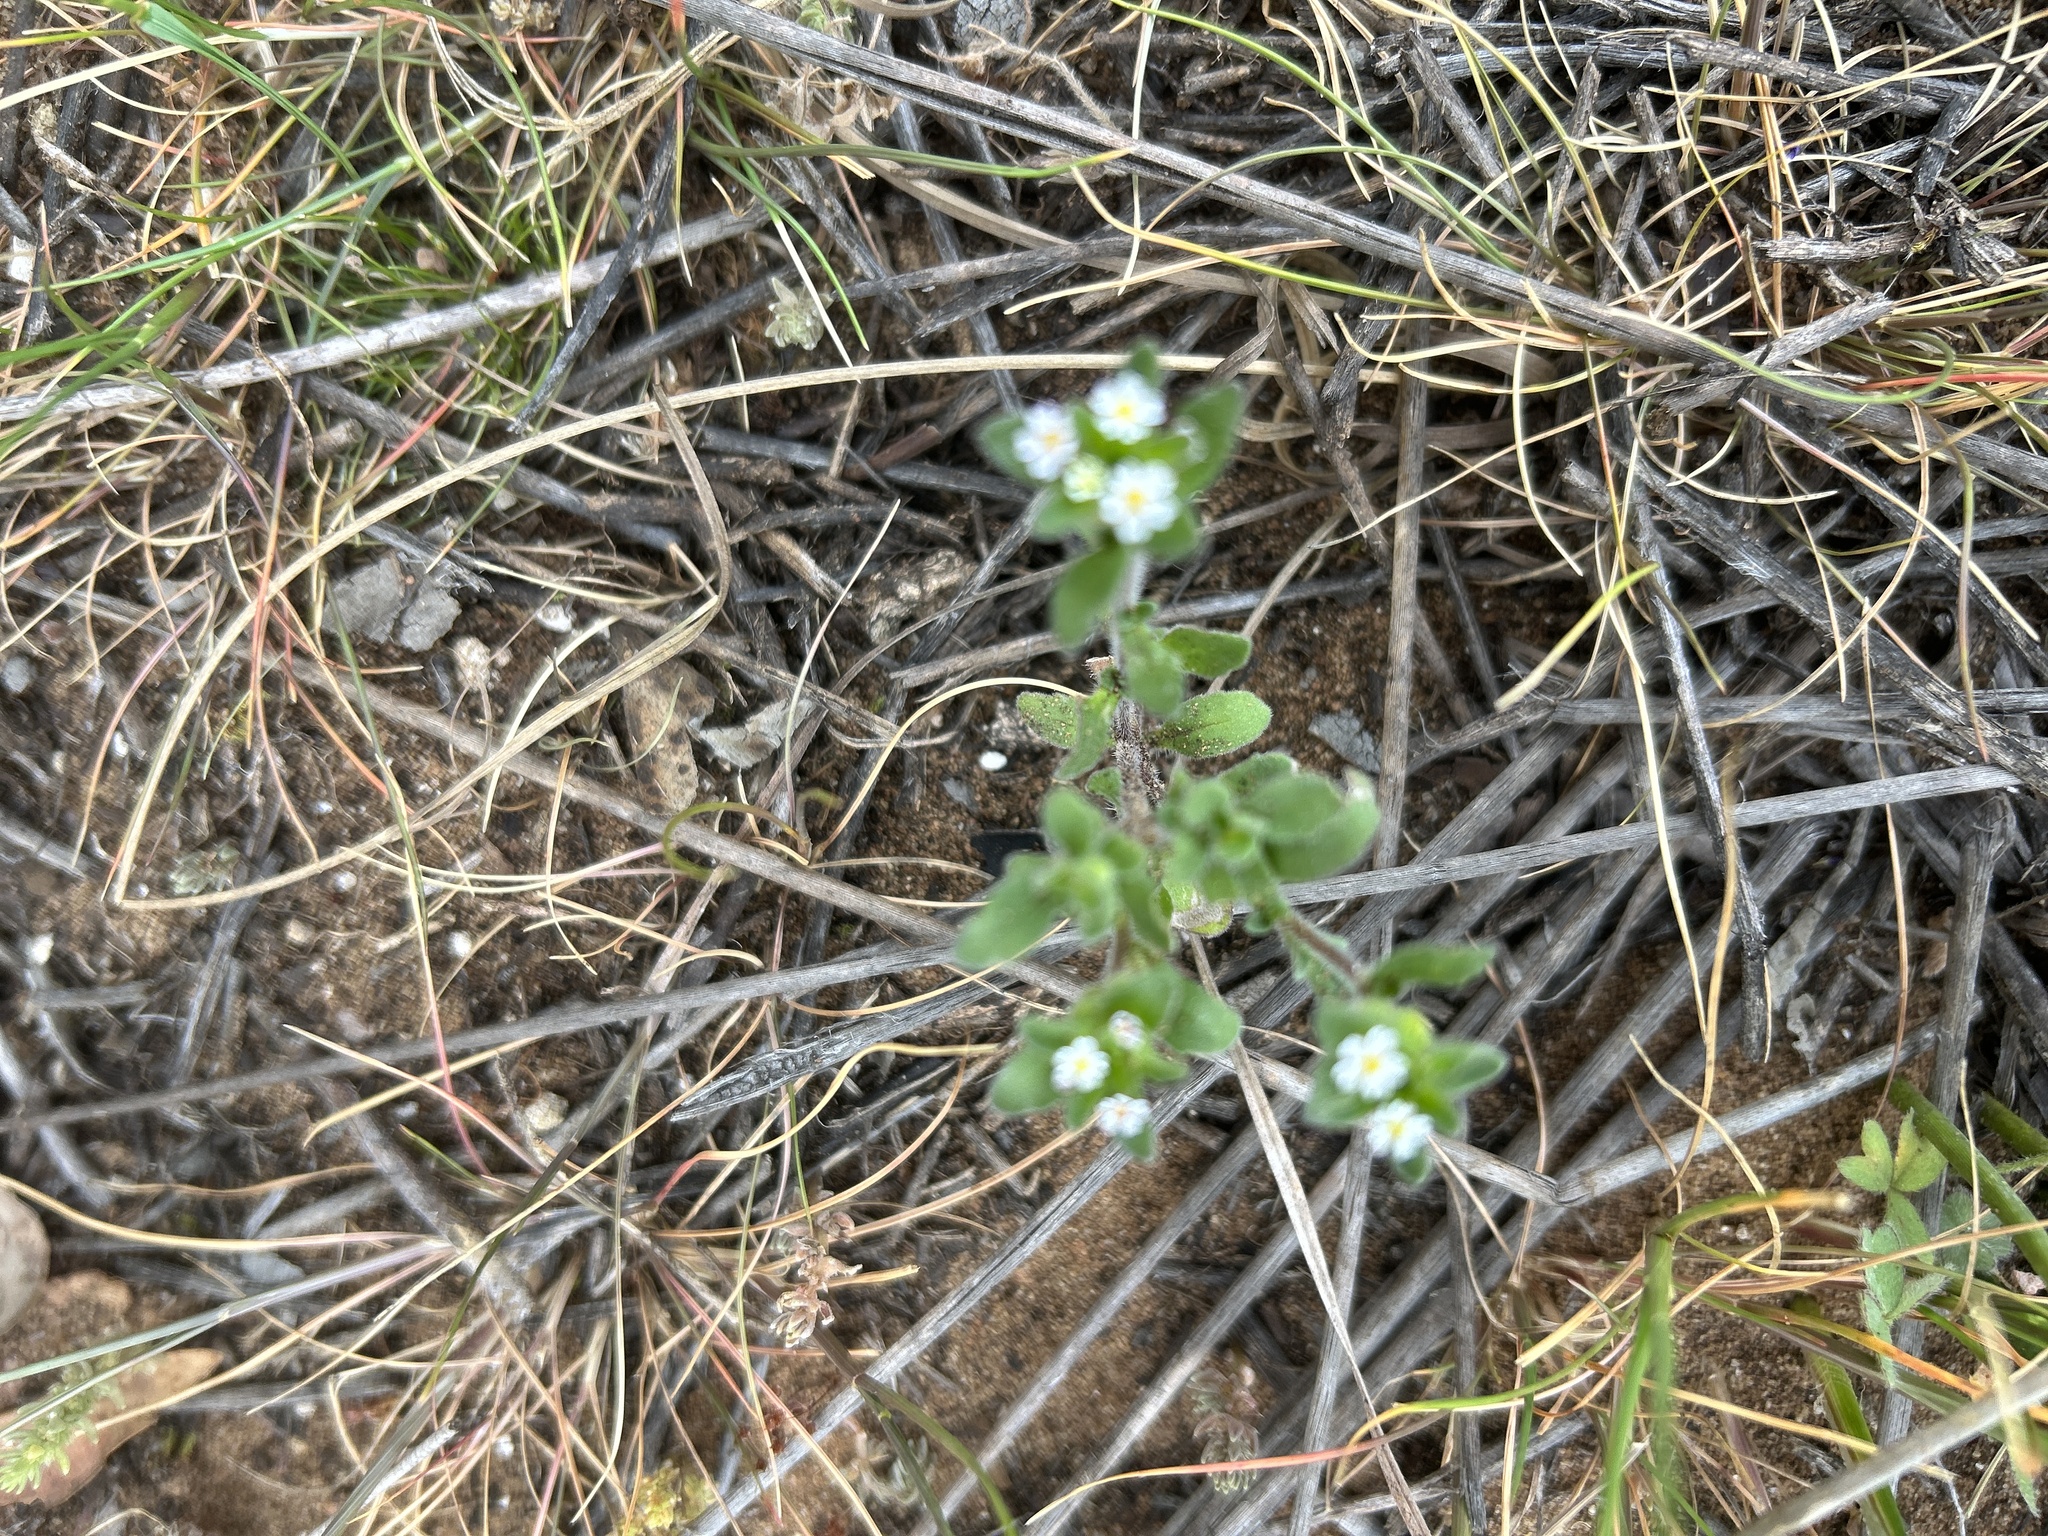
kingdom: Plantae
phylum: Tracheophyta
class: Magnoliopsida
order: Lamiales
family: Scrophulariaceae
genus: Zaluzianskya
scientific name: Zaluzianskya gracilis
